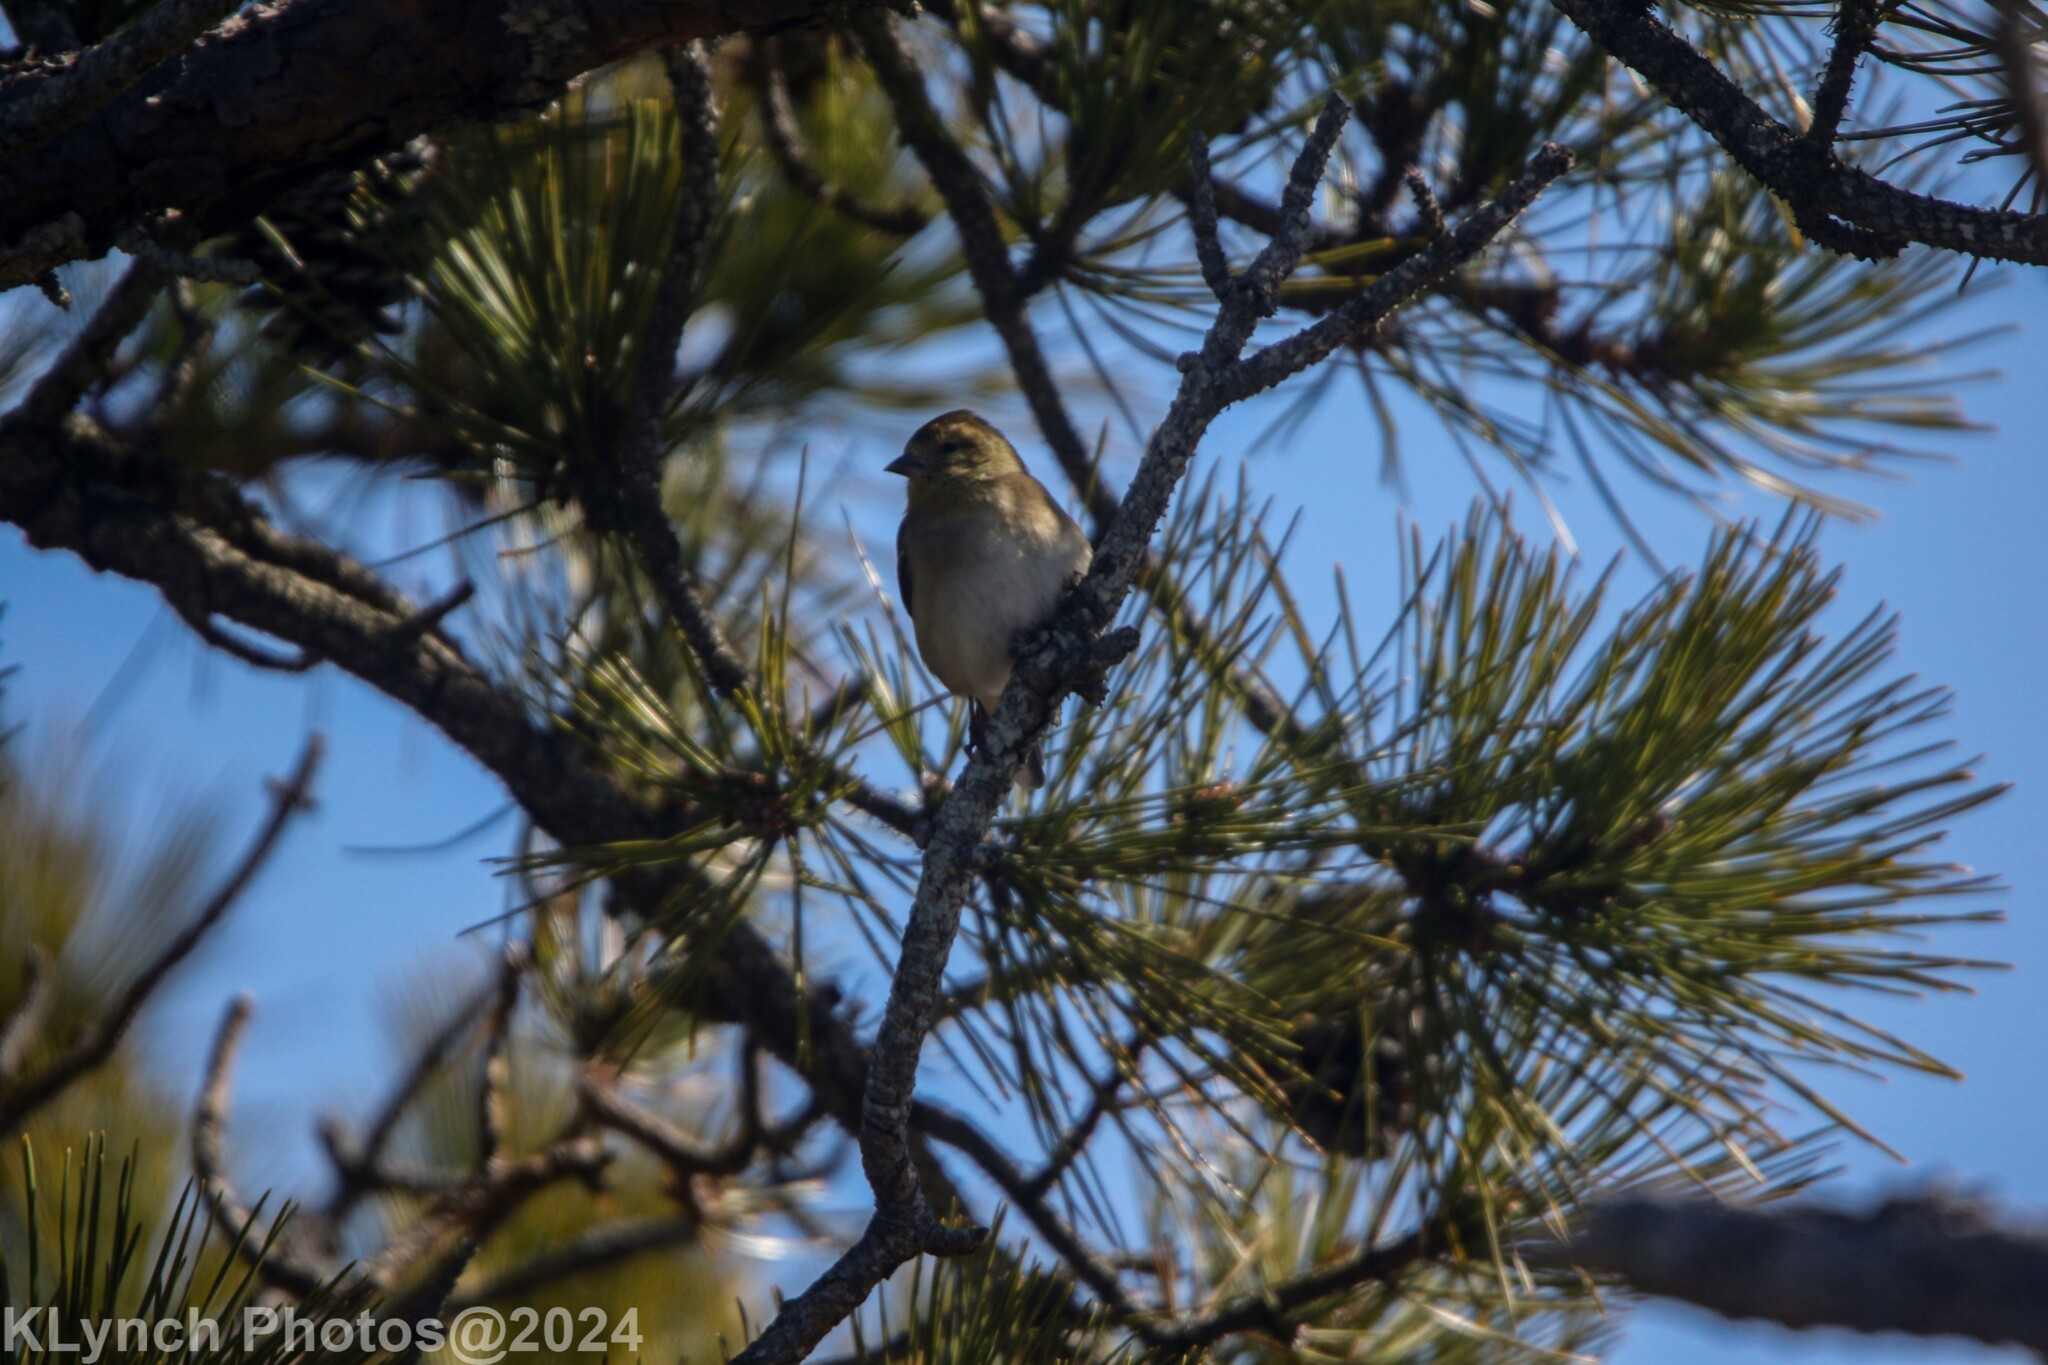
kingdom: Animalia
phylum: Chordata
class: Aves
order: Passeriformes
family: Fringillidae
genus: Spinus
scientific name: Spinus tristis
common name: American goldfinch
